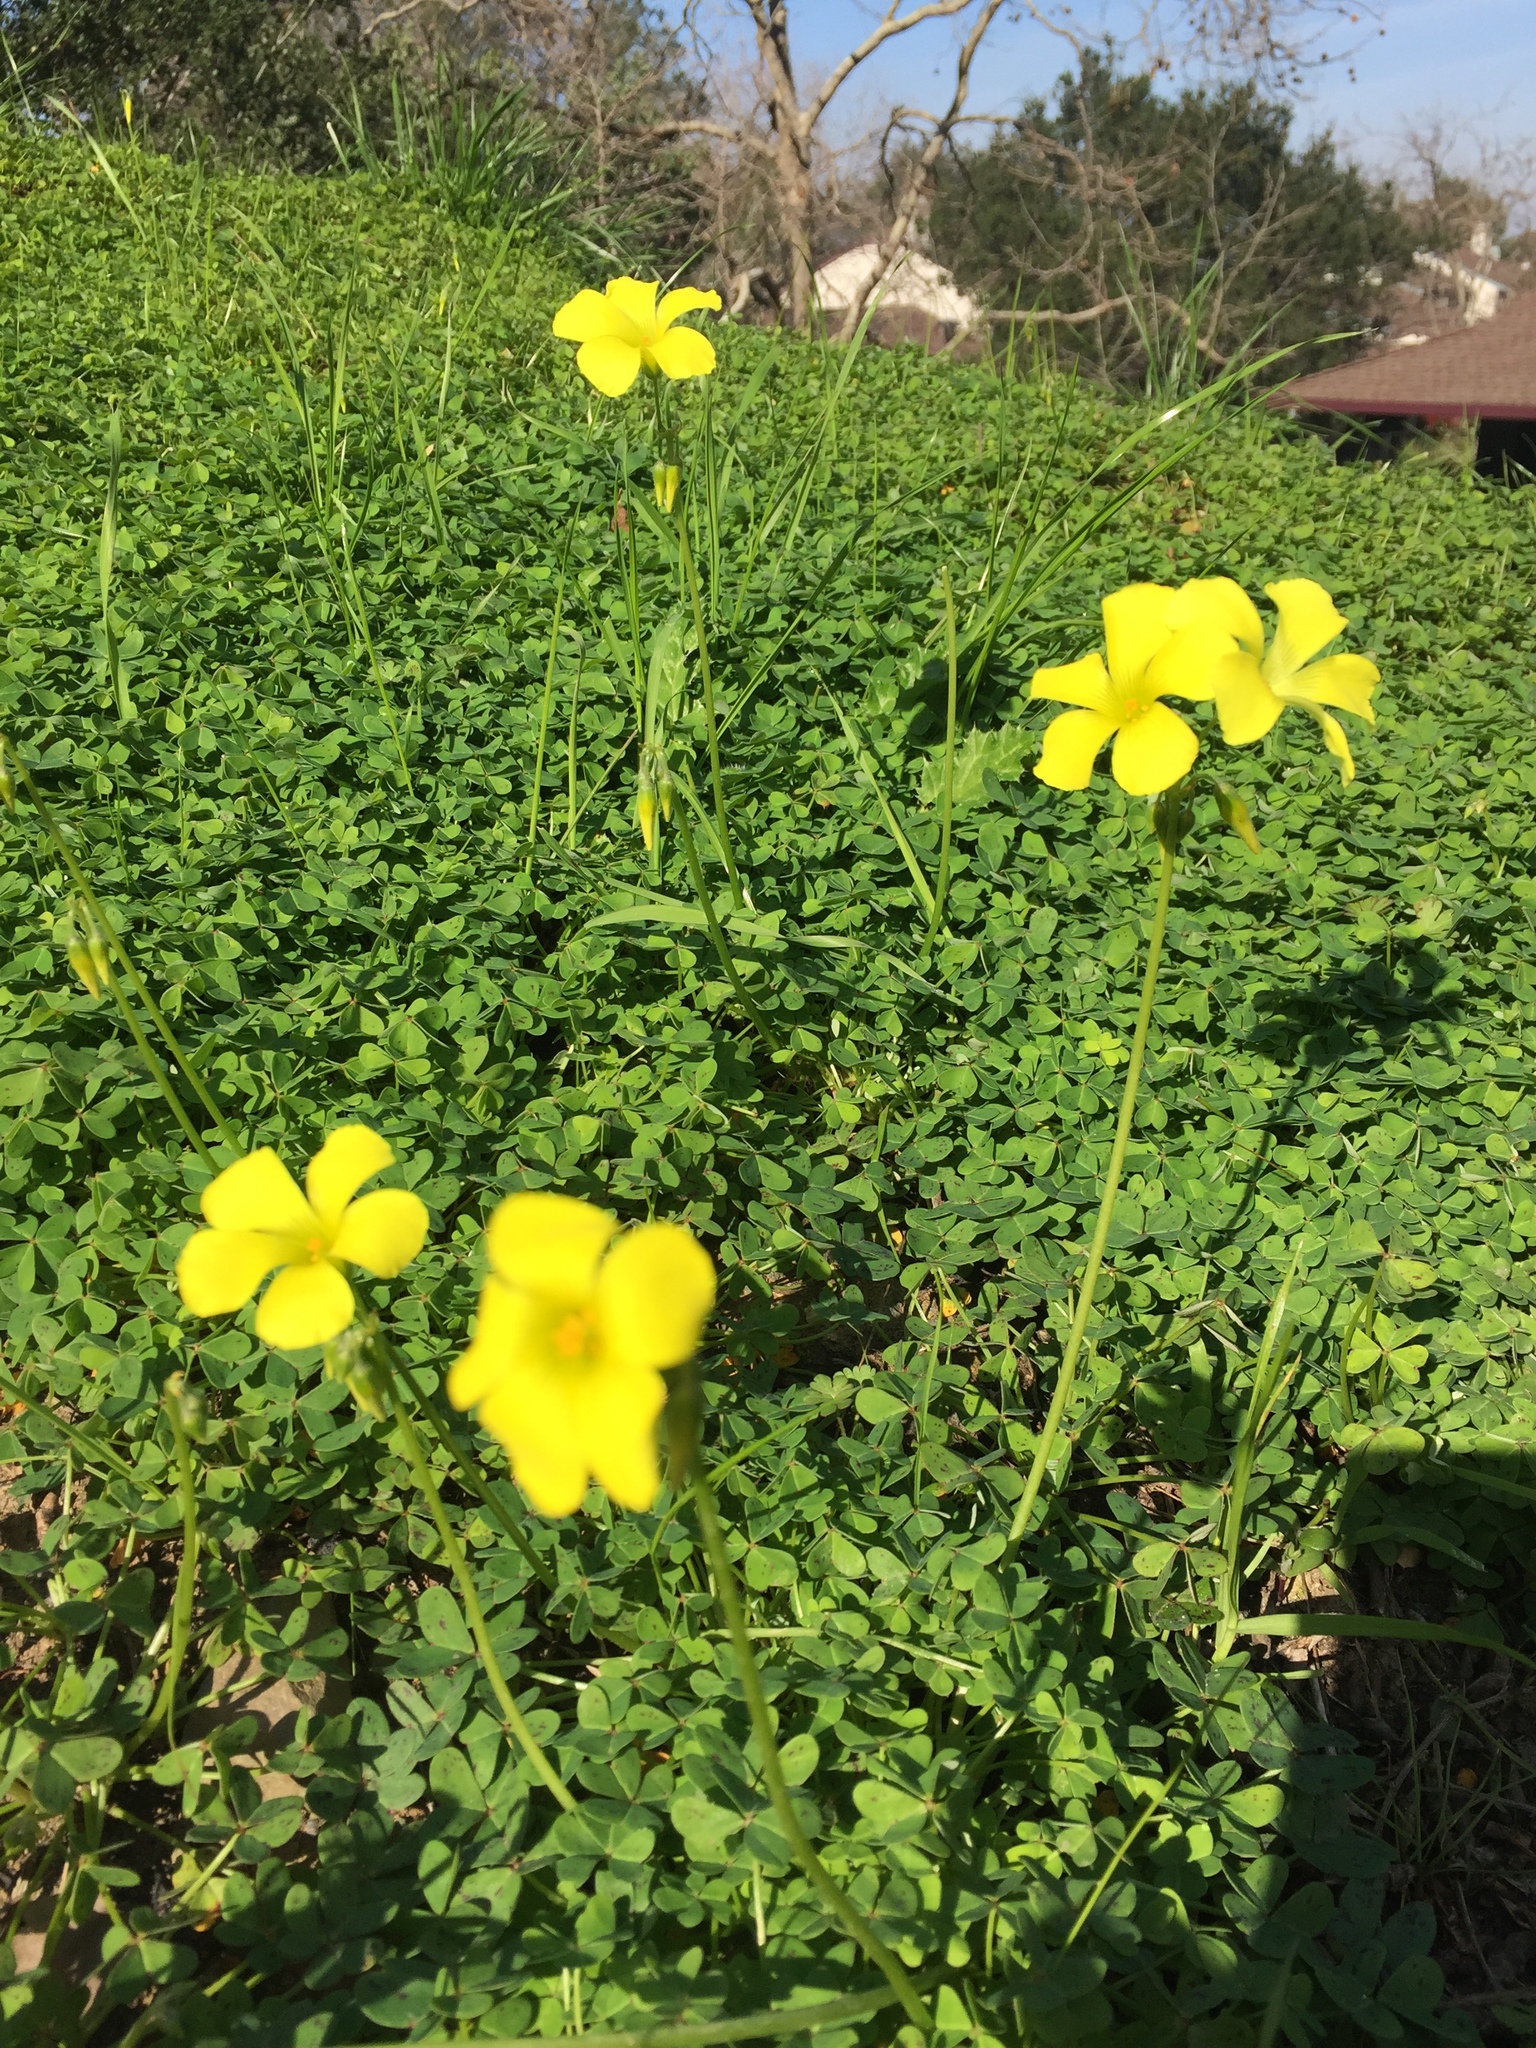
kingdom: Plantae
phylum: Tracheophyta
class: Magnoliopsida
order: Oxalidales
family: Oxalidaceae
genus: Oxalis
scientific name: Oxalis pes-caprae
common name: Bermuda-buttercup
